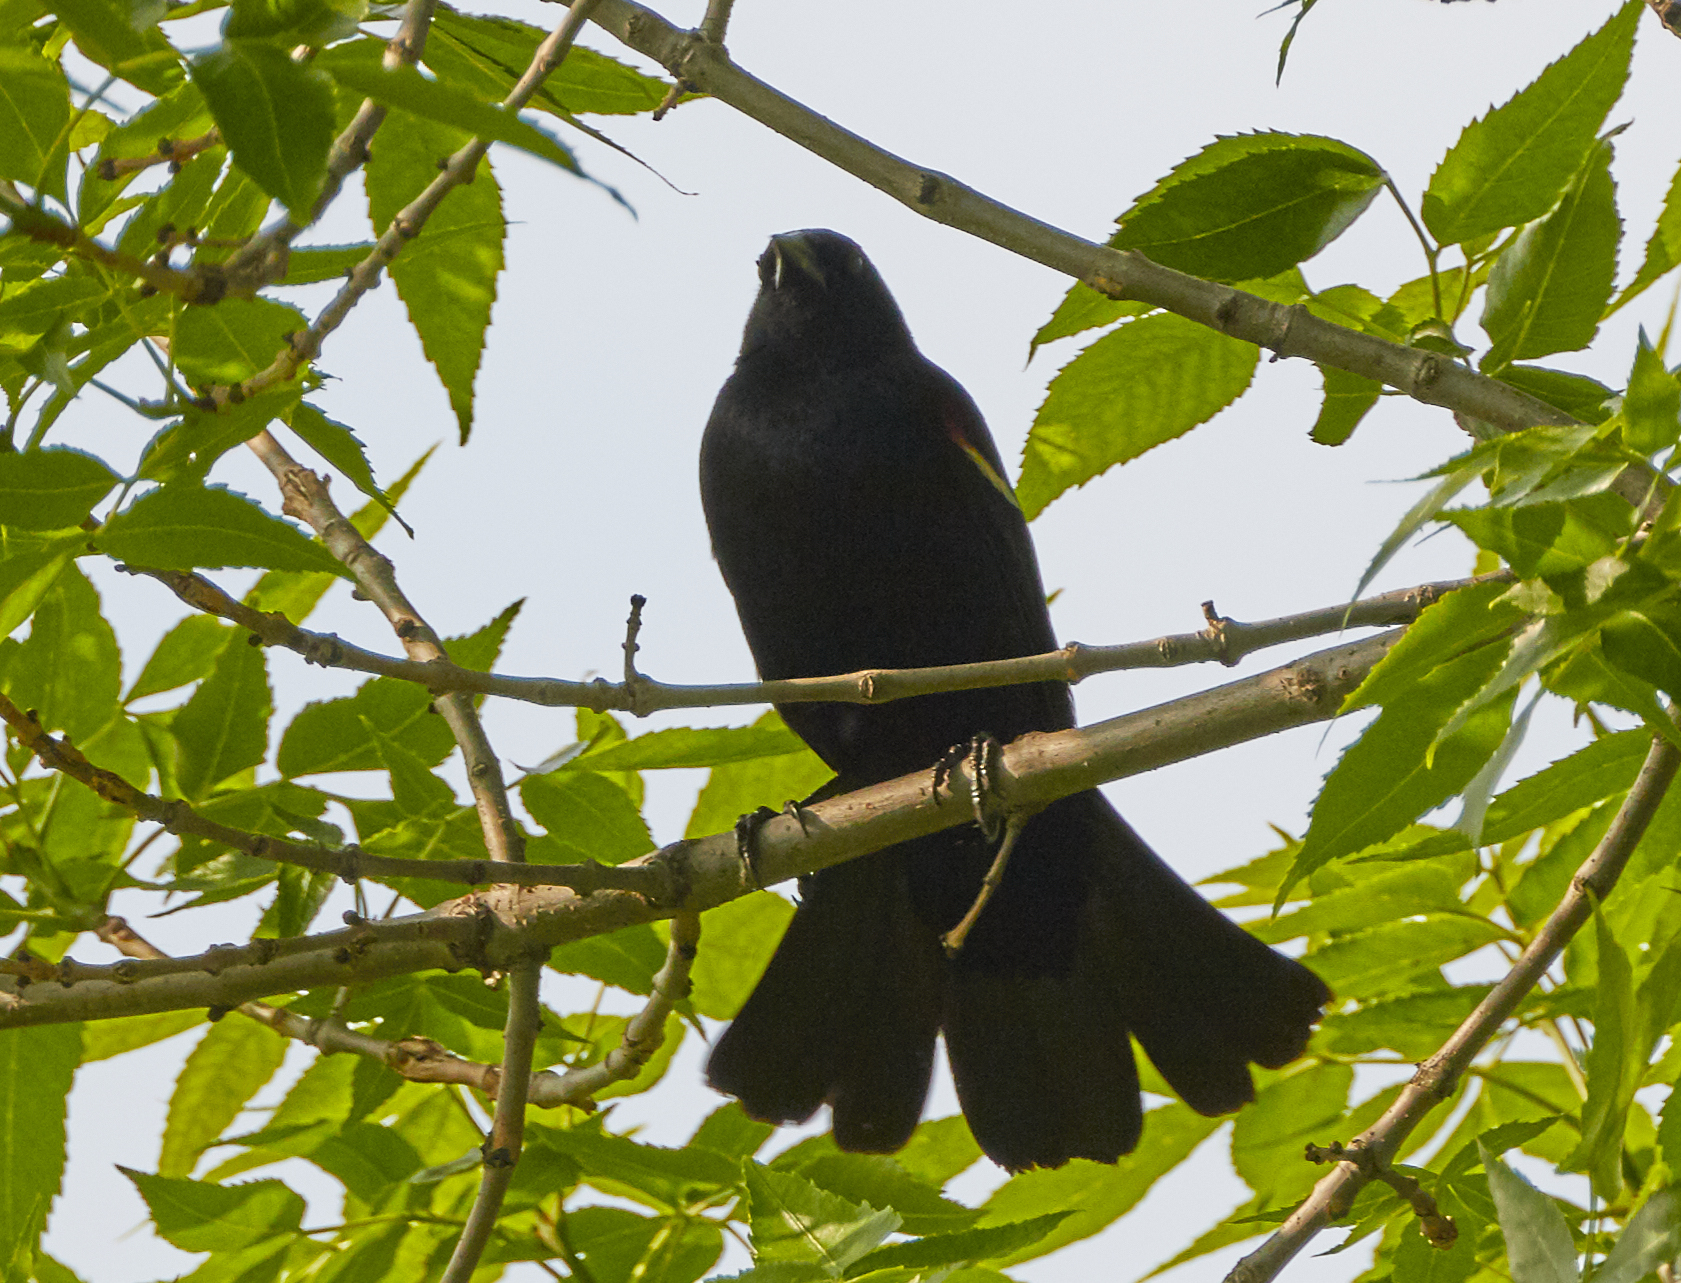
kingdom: Animalia
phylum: Chordata
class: Aves
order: Passeriformes
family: Icteridae
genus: Agelaius
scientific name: Agelaius phoeniceus
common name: Red-winged blackbird
